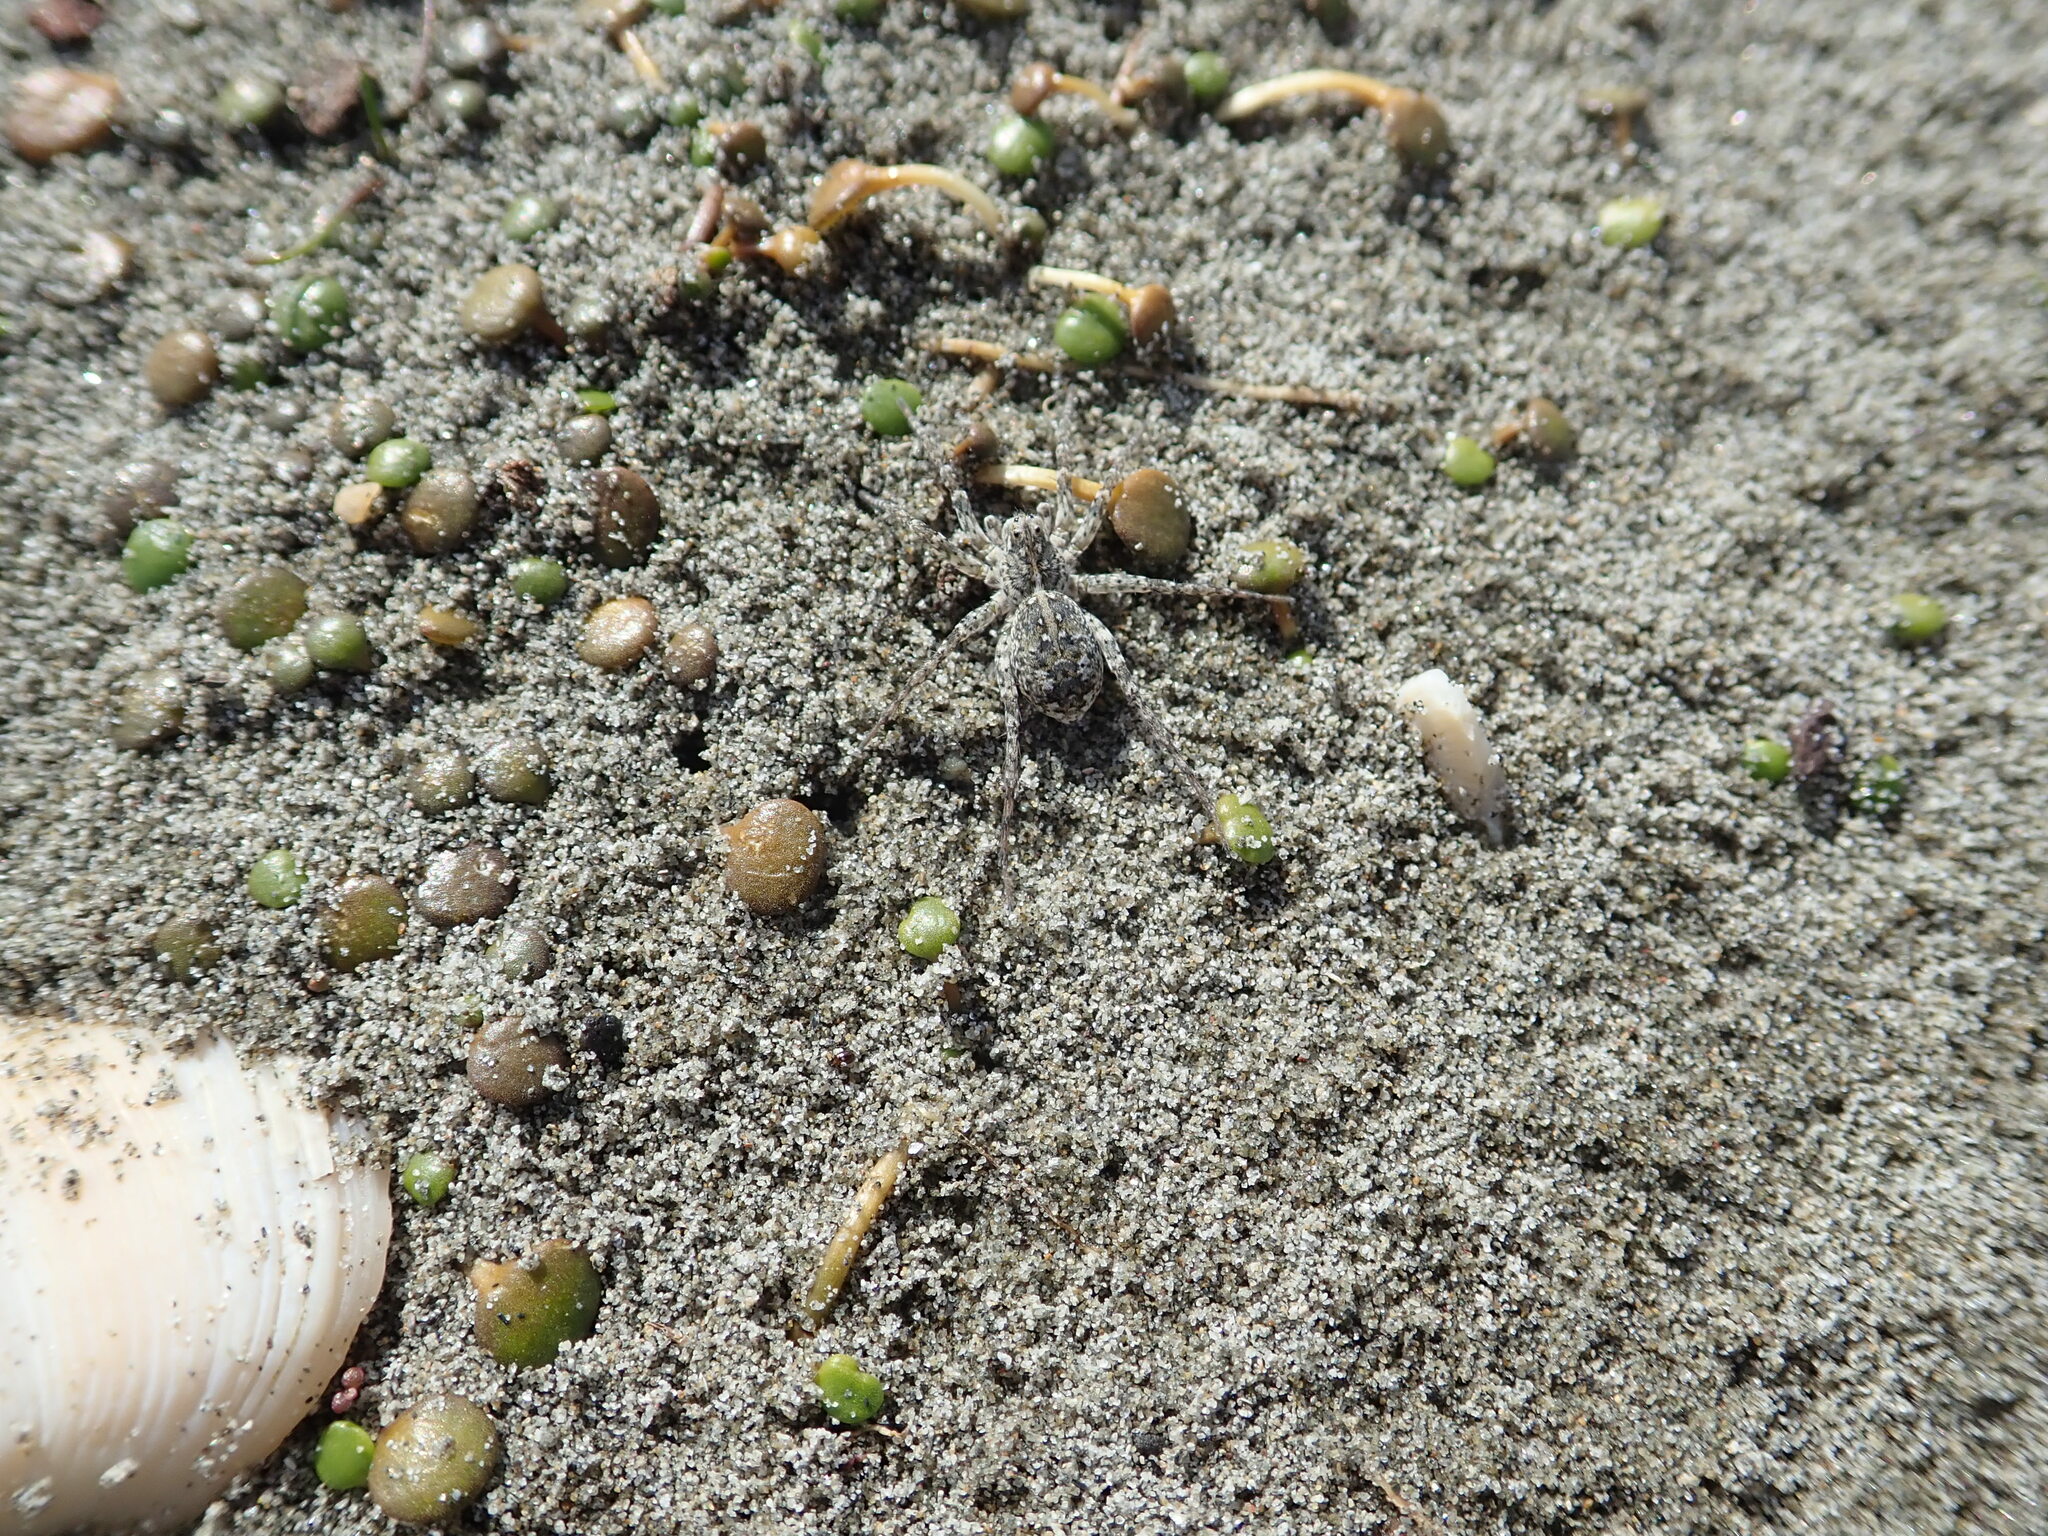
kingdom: Animalia
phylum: Arthropoda
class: Arachnida
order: Araneae
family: Lycosidae
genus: Anoteropsis
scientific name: Anoteropsis litoralis
